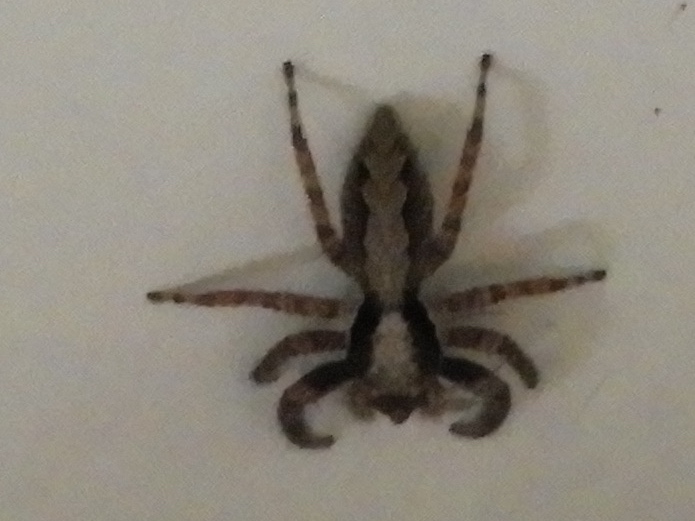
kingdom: Animalia
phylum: Arthropoda
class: Arachnida
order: Araneae
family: Salticidae
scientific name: Salticidae
